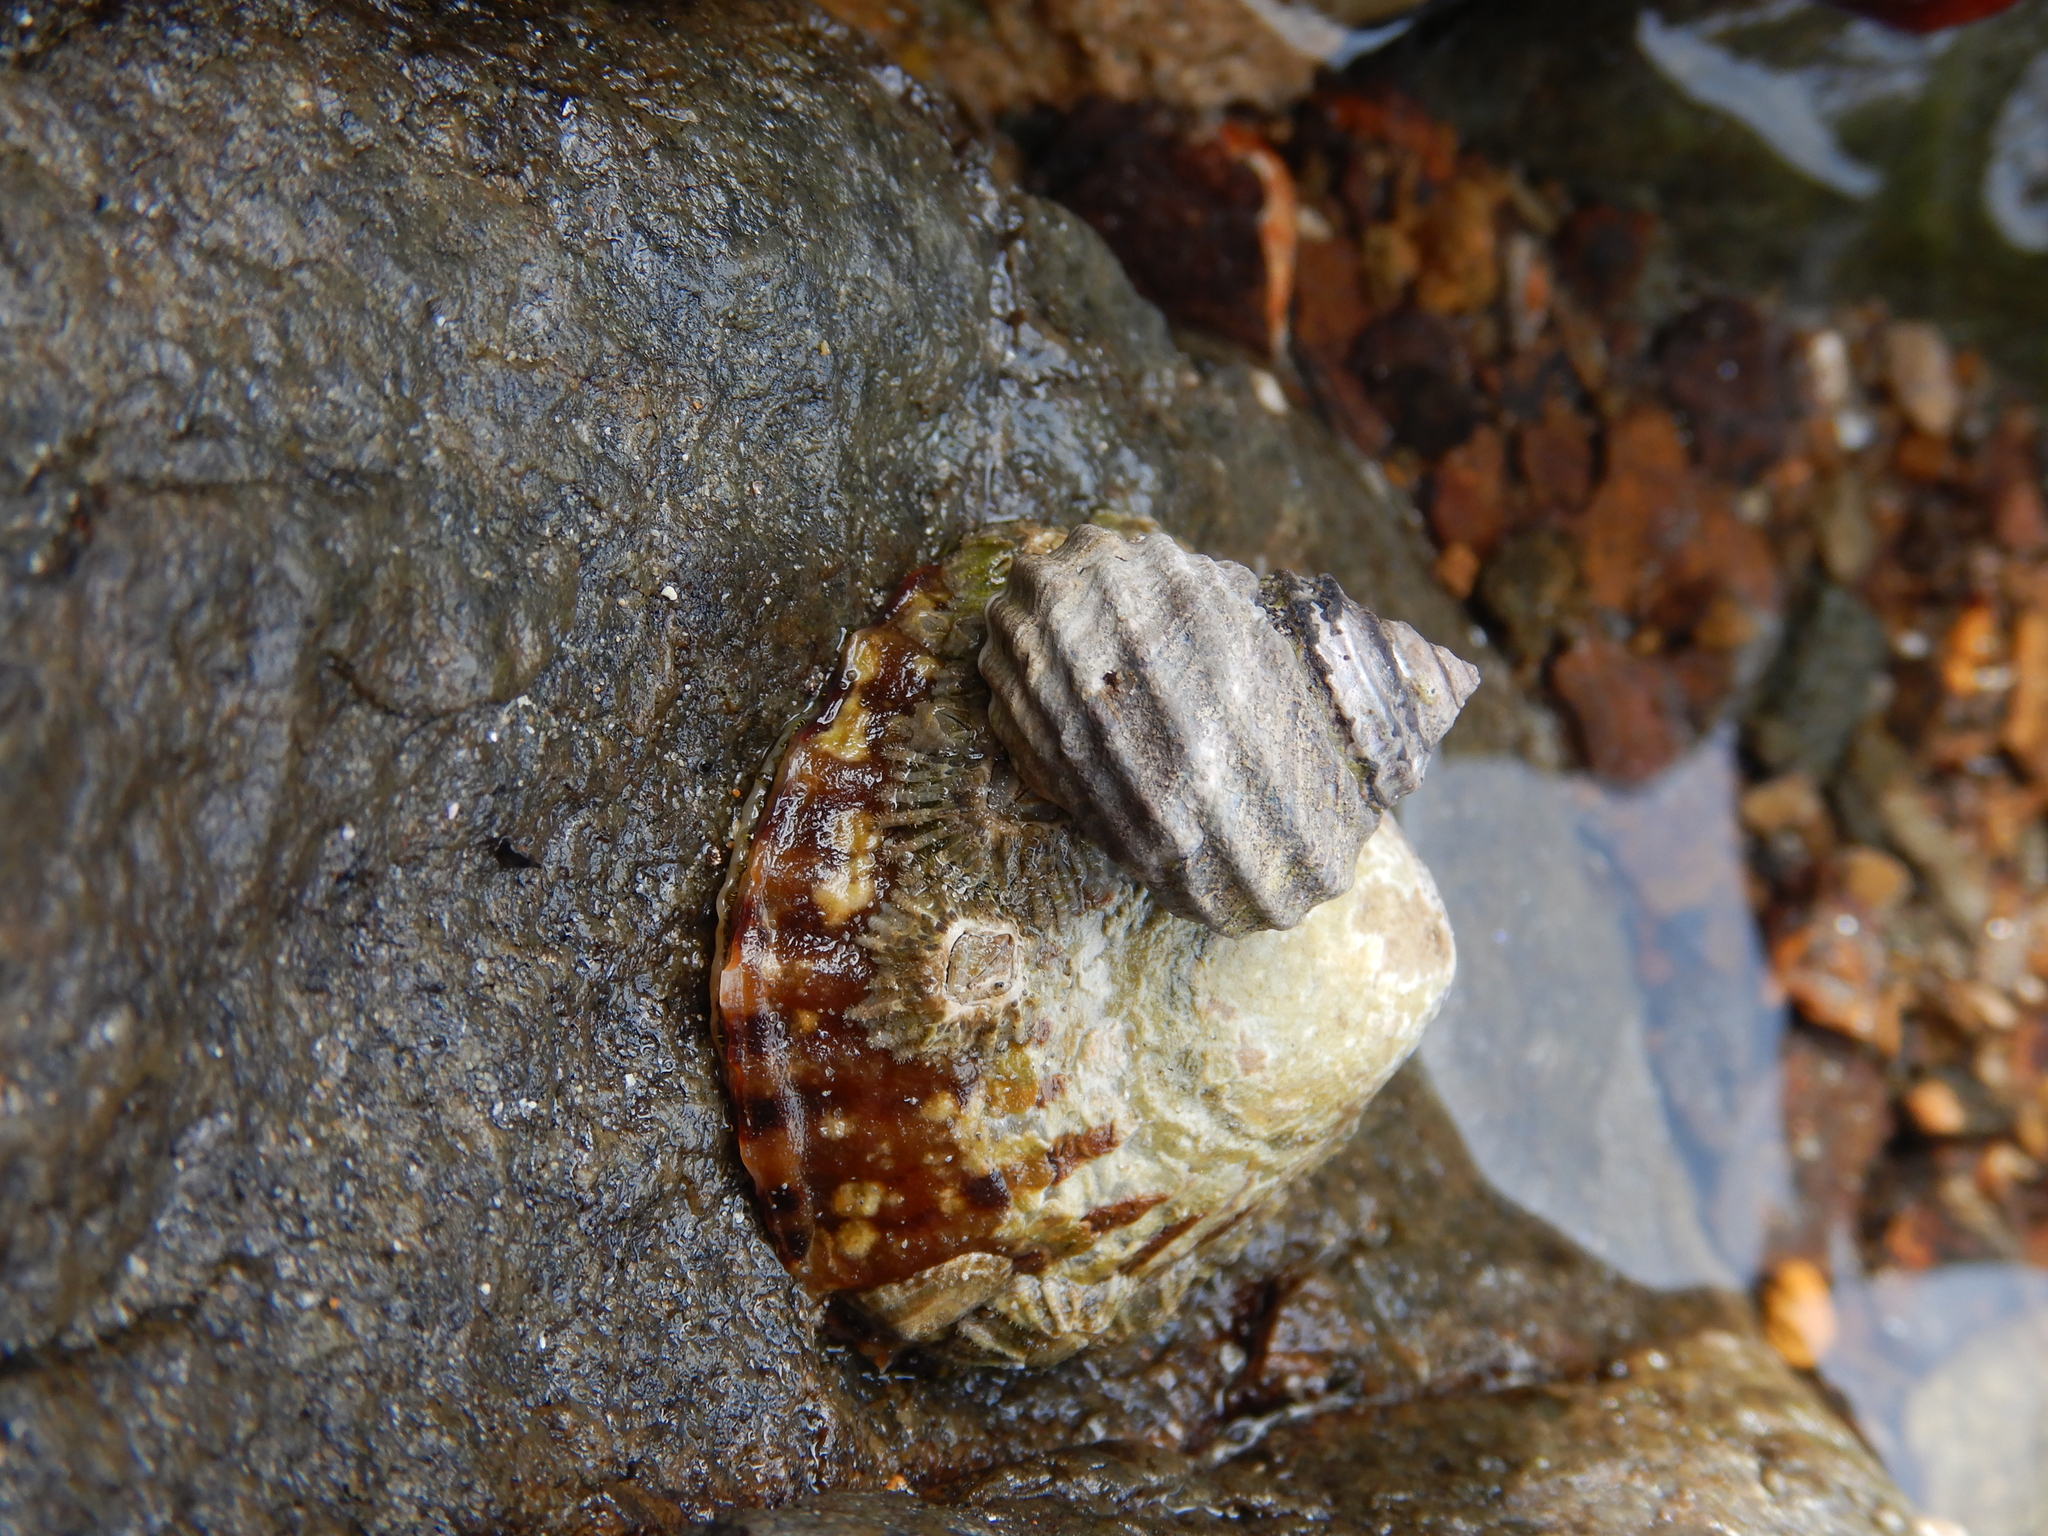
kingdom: Animalia
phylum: Mollusca
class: Gastropoda
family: Nacellidae
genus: Cellana
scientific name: Cellana solida
